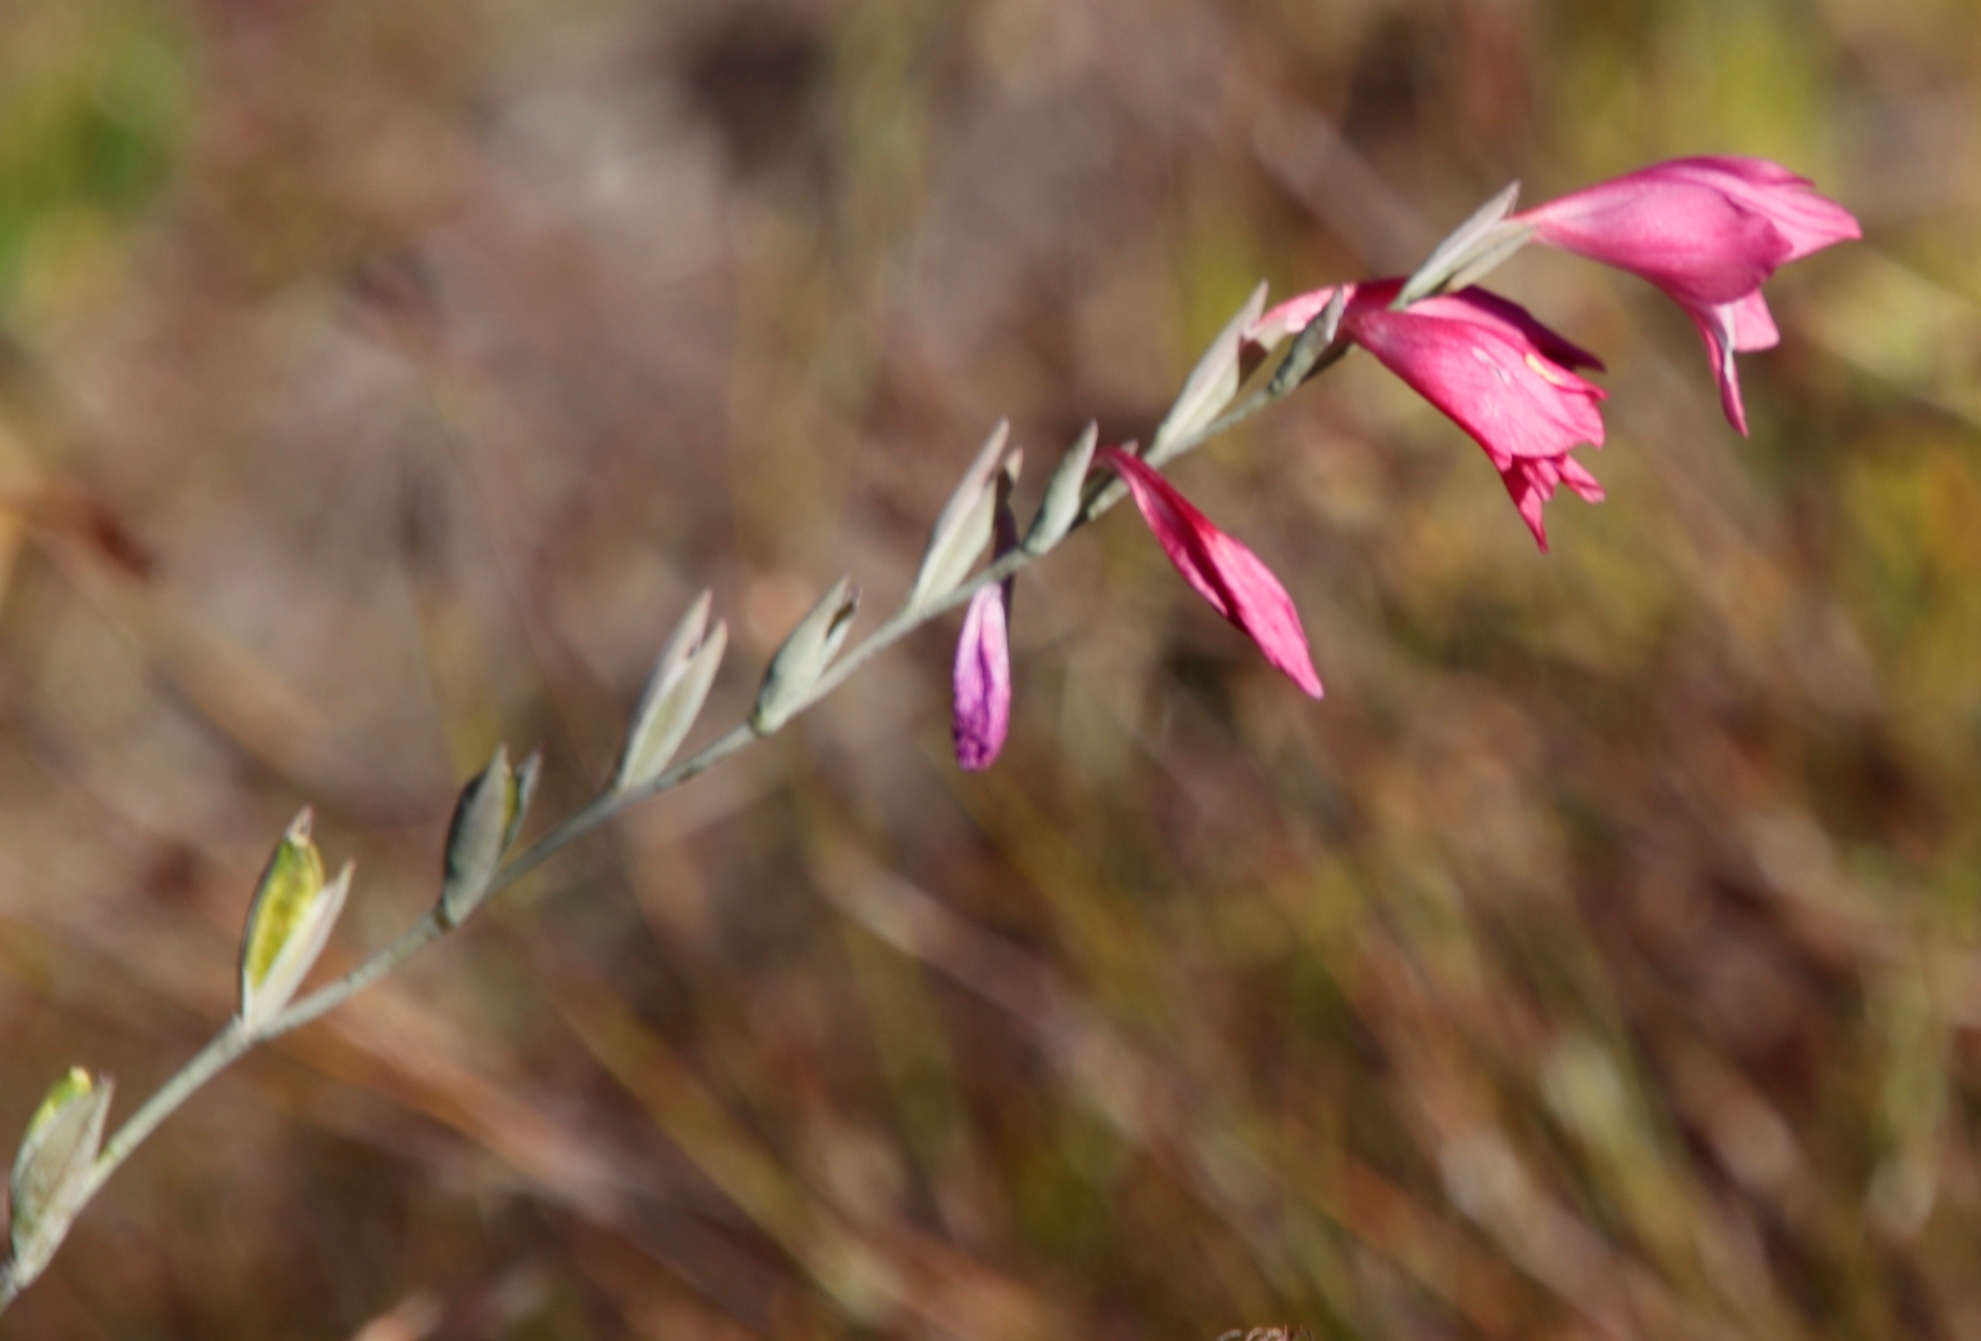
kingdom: Plantae
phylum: Tracheophyta
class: Liliopsida
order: Asparagales
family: Iridaceae
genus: Gladiolus
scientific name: Gladiolus brevifolius
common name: March pypie
